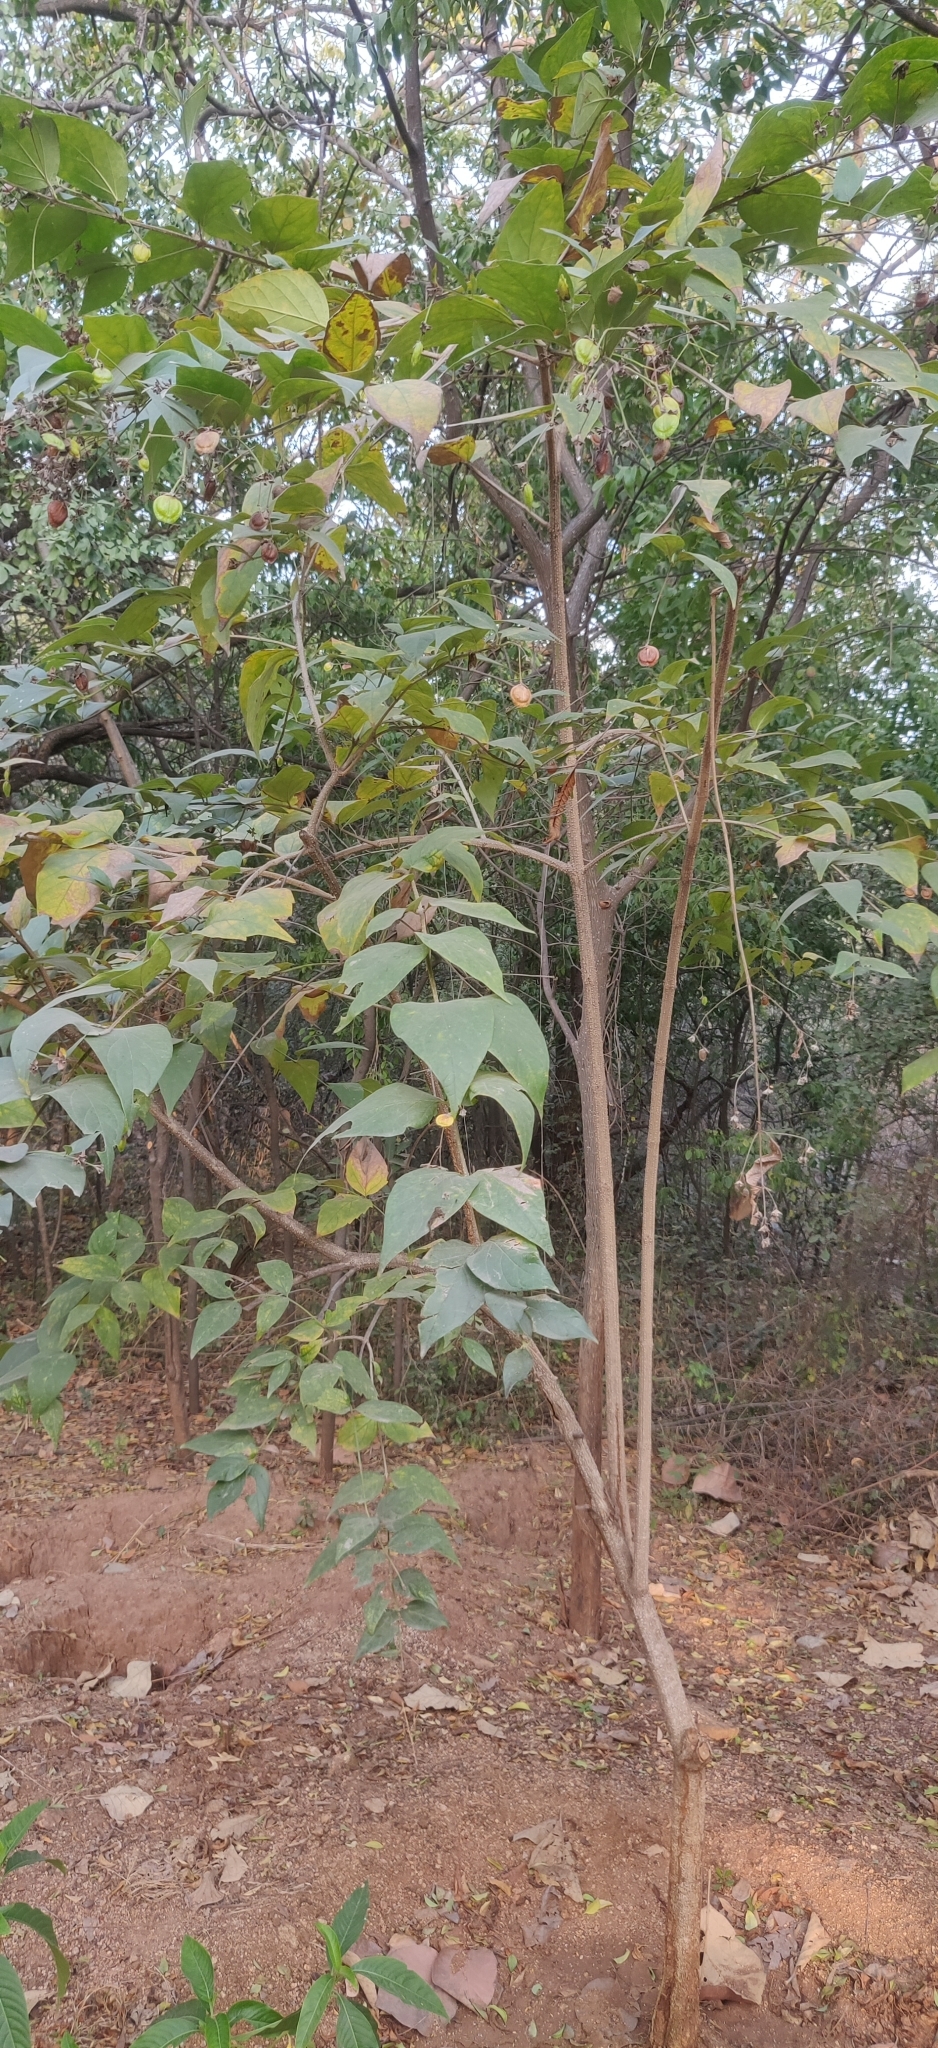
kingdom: Plantae
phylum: Tracheophyta
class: Magnoliopsida
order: Lamiales
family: Oleaceae
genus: Nyctanthes
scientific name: Nyctanthes arbor-tristis
